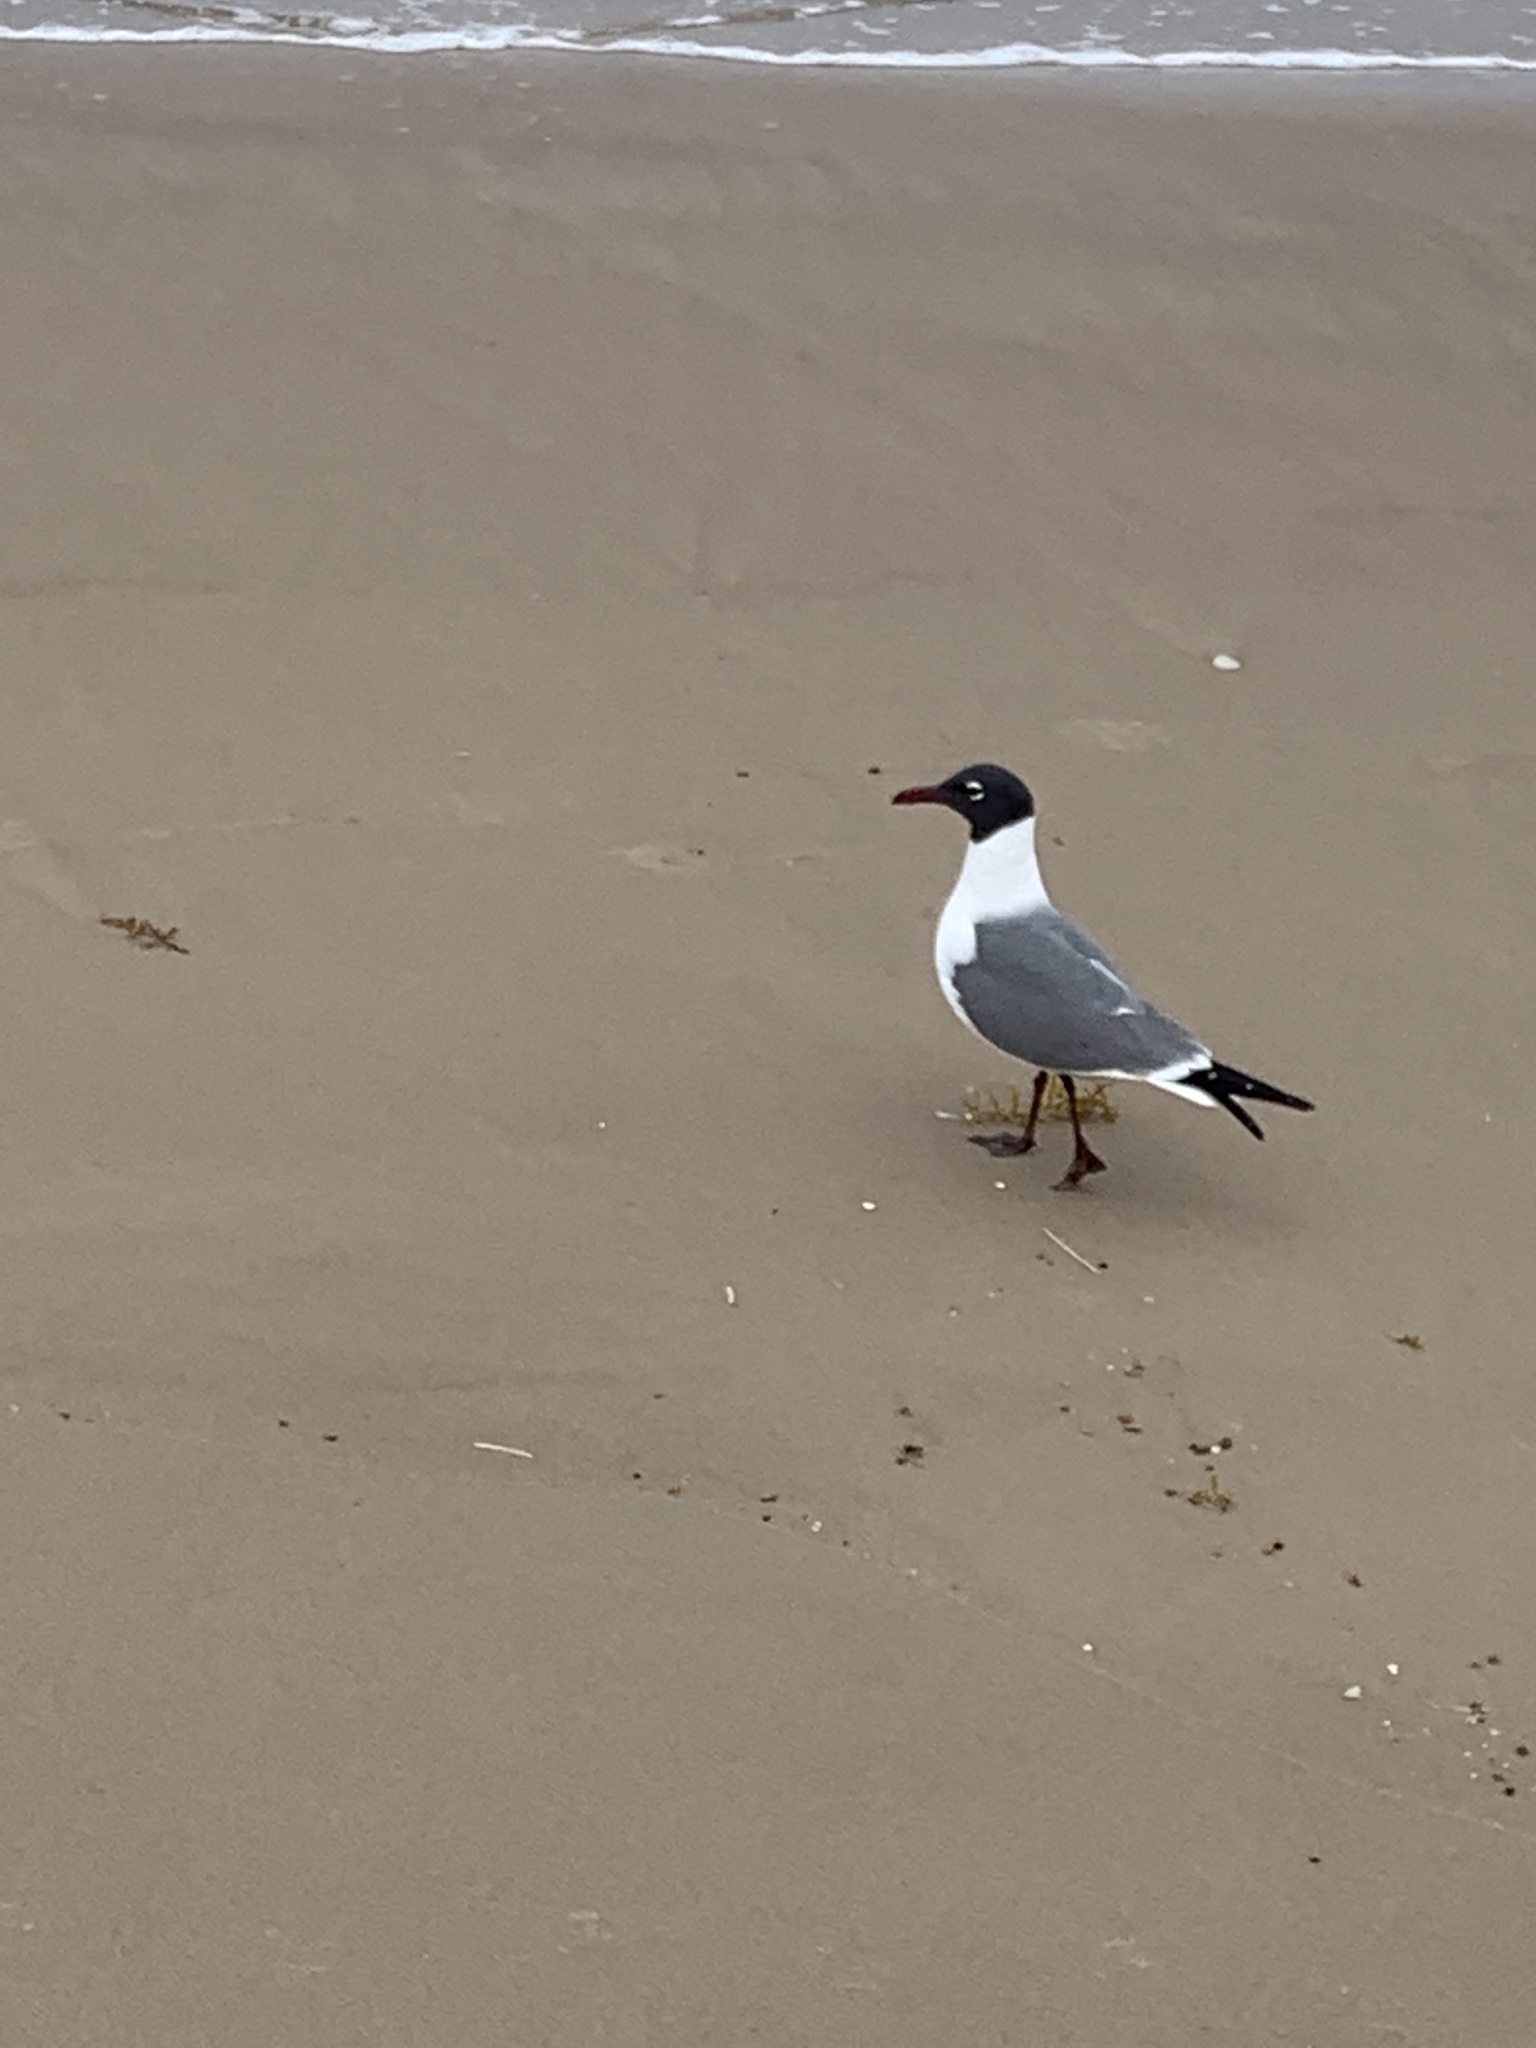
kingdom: Animalia
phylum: Chordata
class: Aves
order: Charadriiformes
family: Laridae
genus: Leucophaeus
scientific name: Leucophaeus atricilla
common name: Laughing gull
